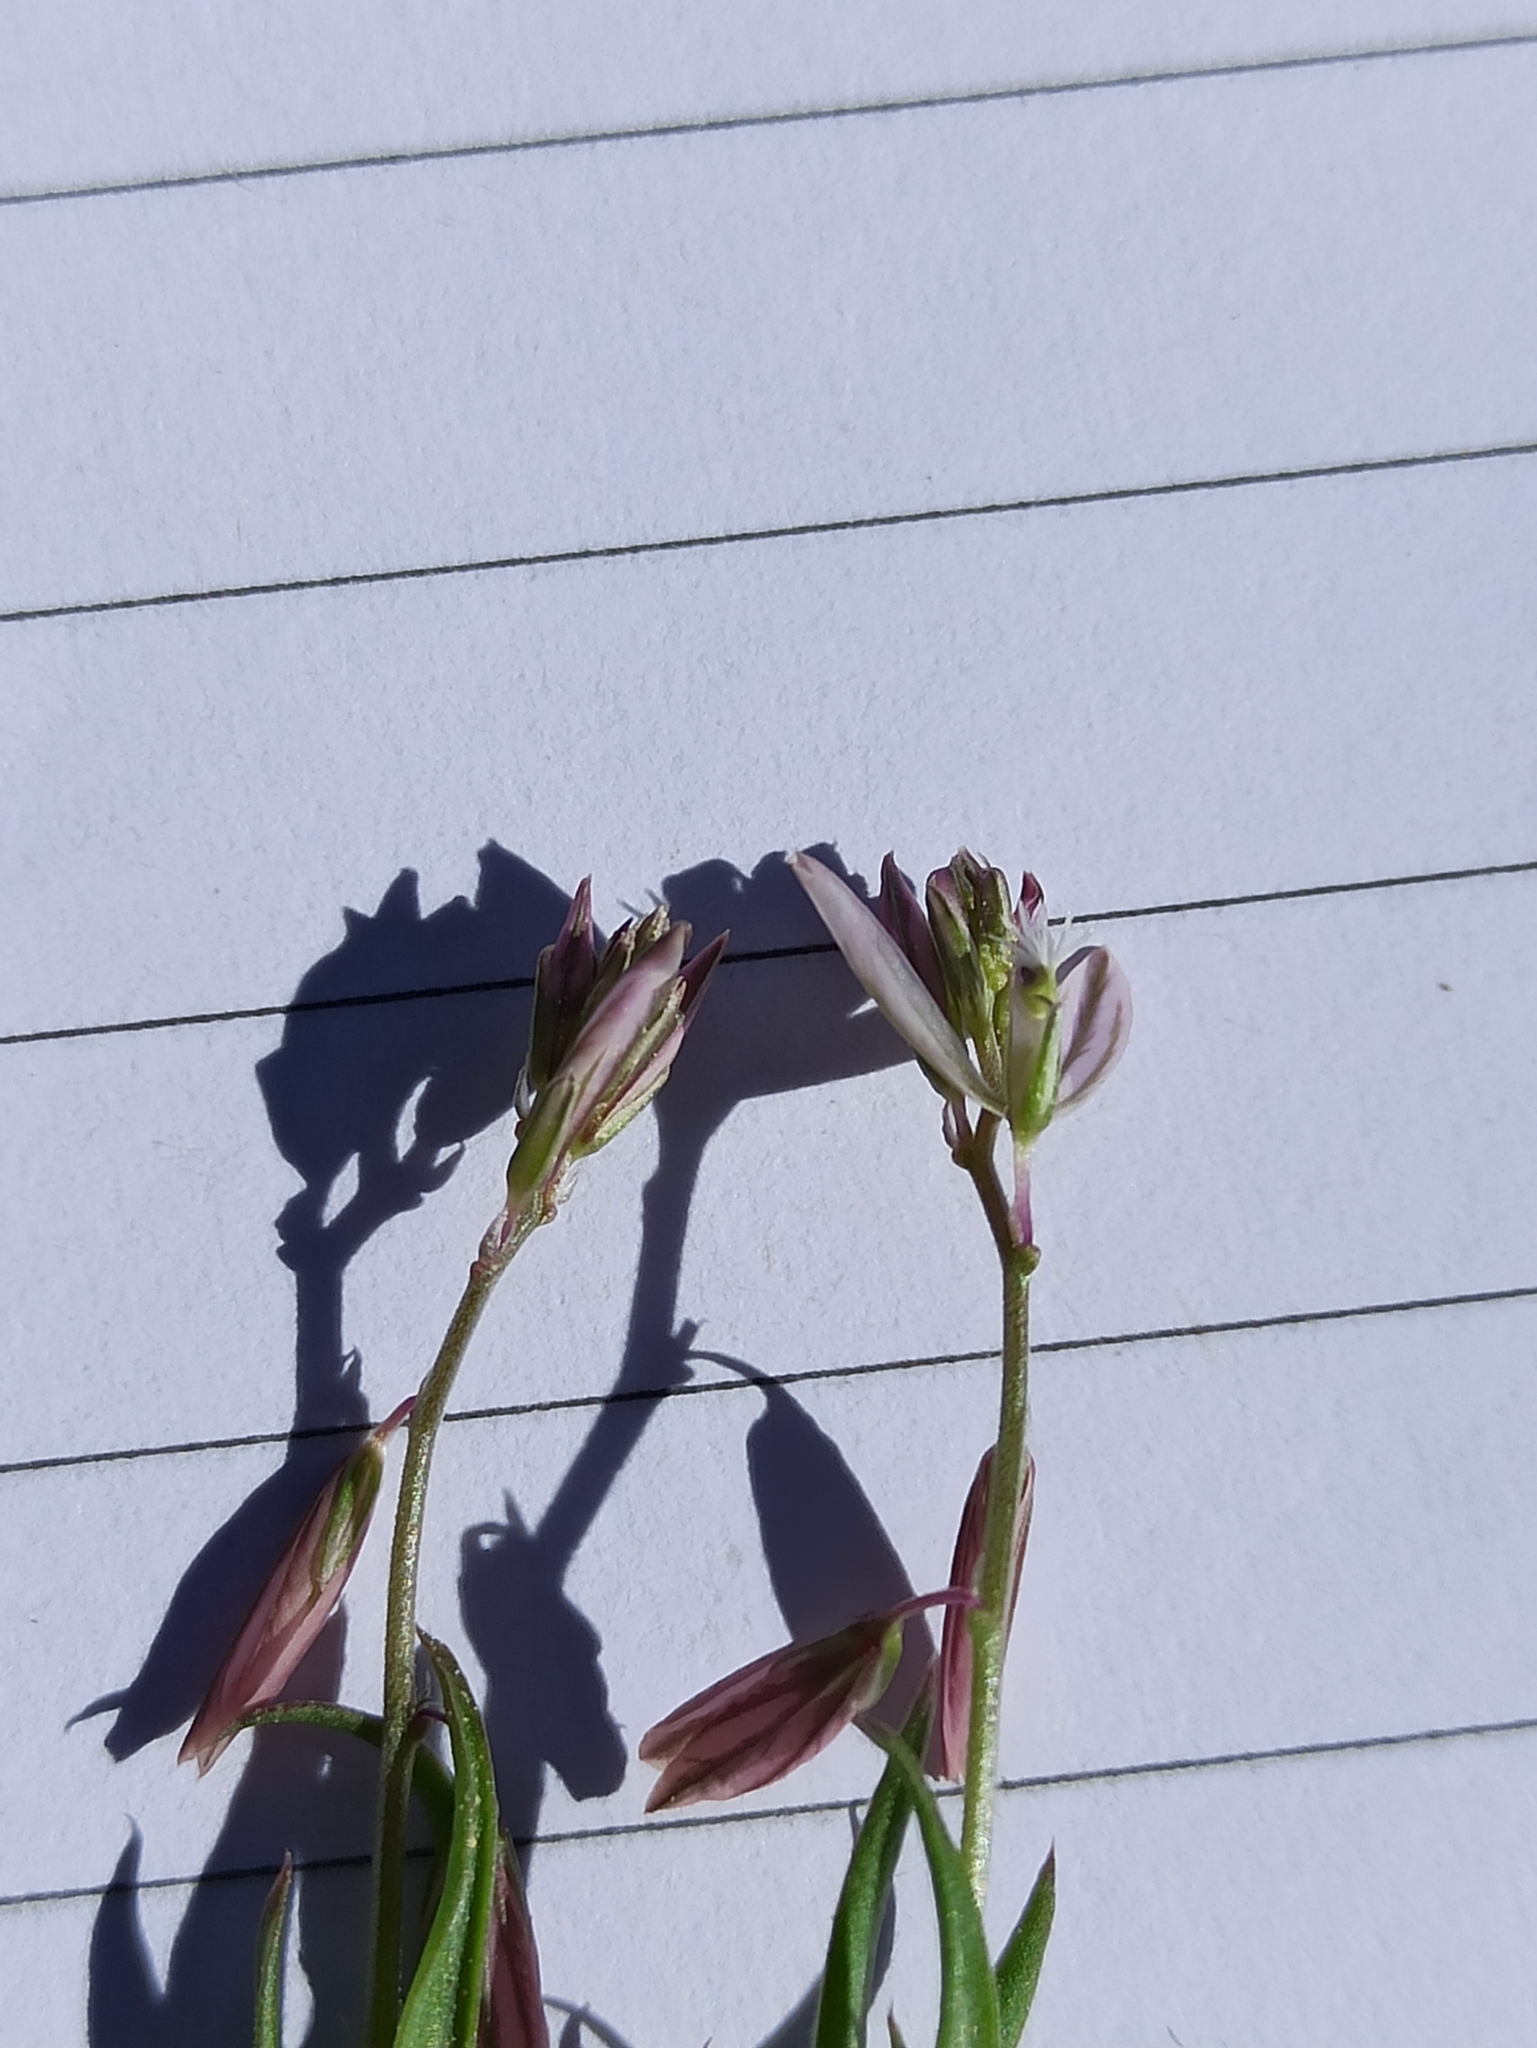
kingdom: Plantae
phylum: Tracheophyta
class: Magnoliopsida
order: Fabales
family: Polygalaceae
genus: Polygala
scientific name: Polygala monspeliaca
